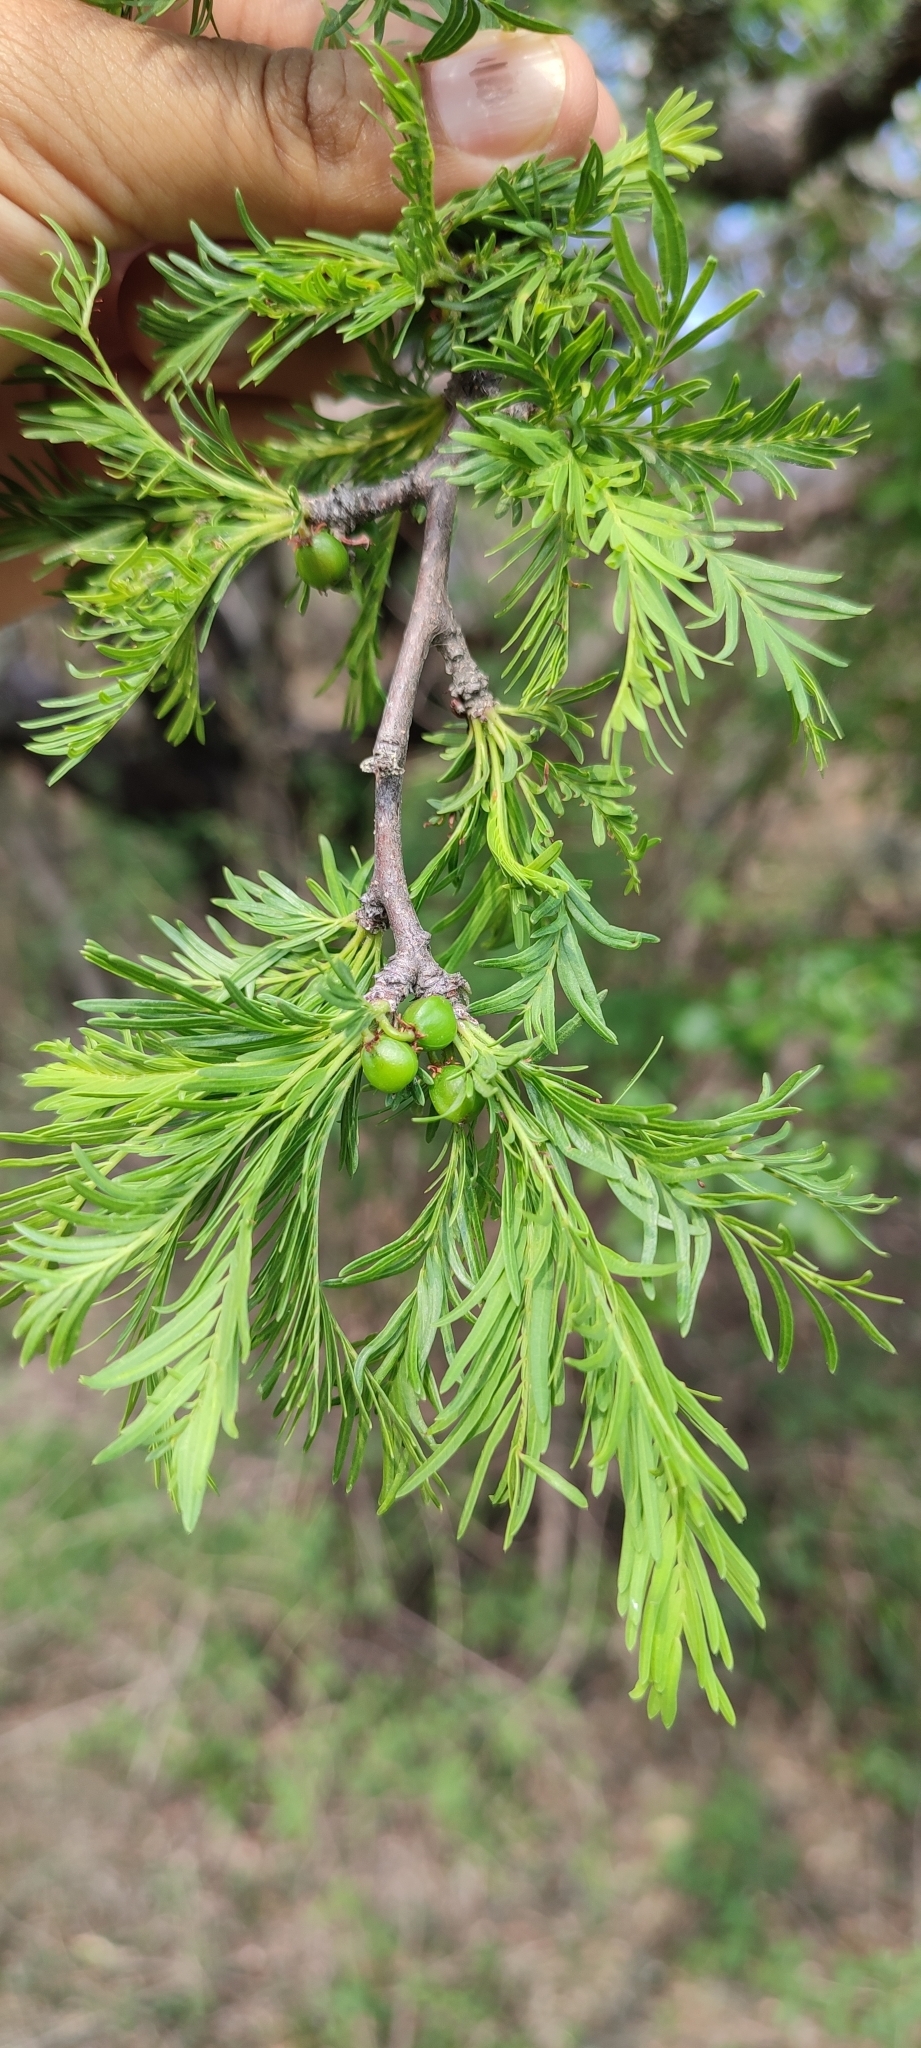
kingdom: Plantae
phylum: Tracheophyta
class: Magnoliopsida
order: Sapindales
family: Burseraceae
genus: Bursera
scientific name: Bursera galeottiana
